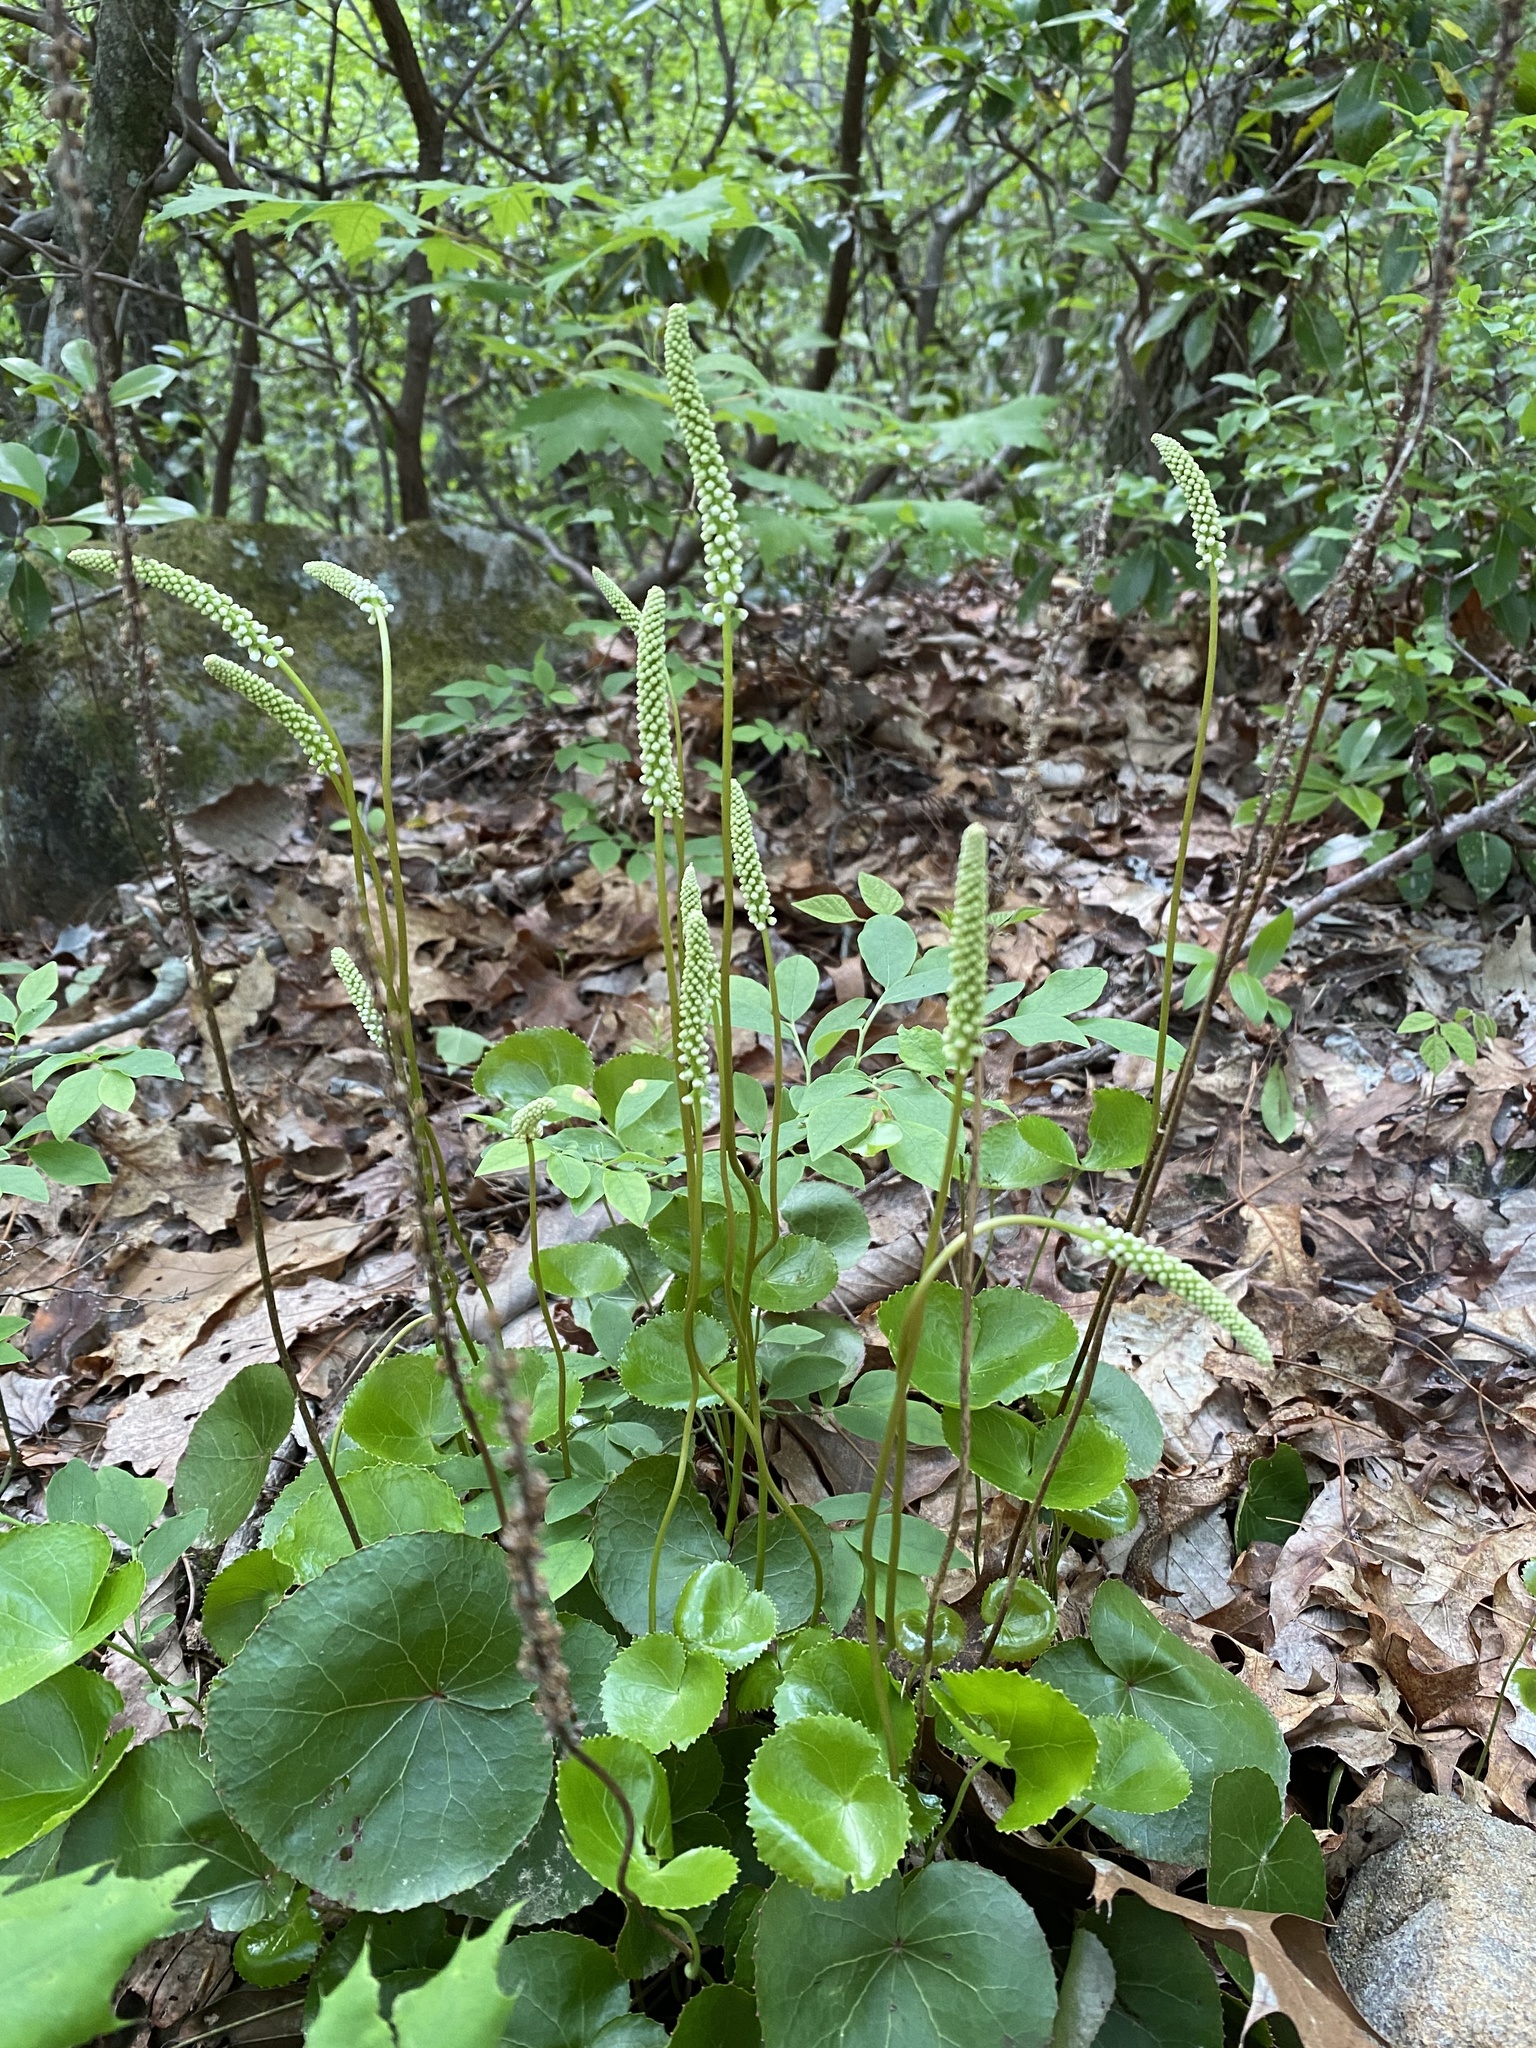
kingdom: Plantae
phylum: Tracheophyta
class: Magnoliopsida
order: Ericales
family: Diapensiaceae
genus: Galax
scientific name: Galax urceolata
